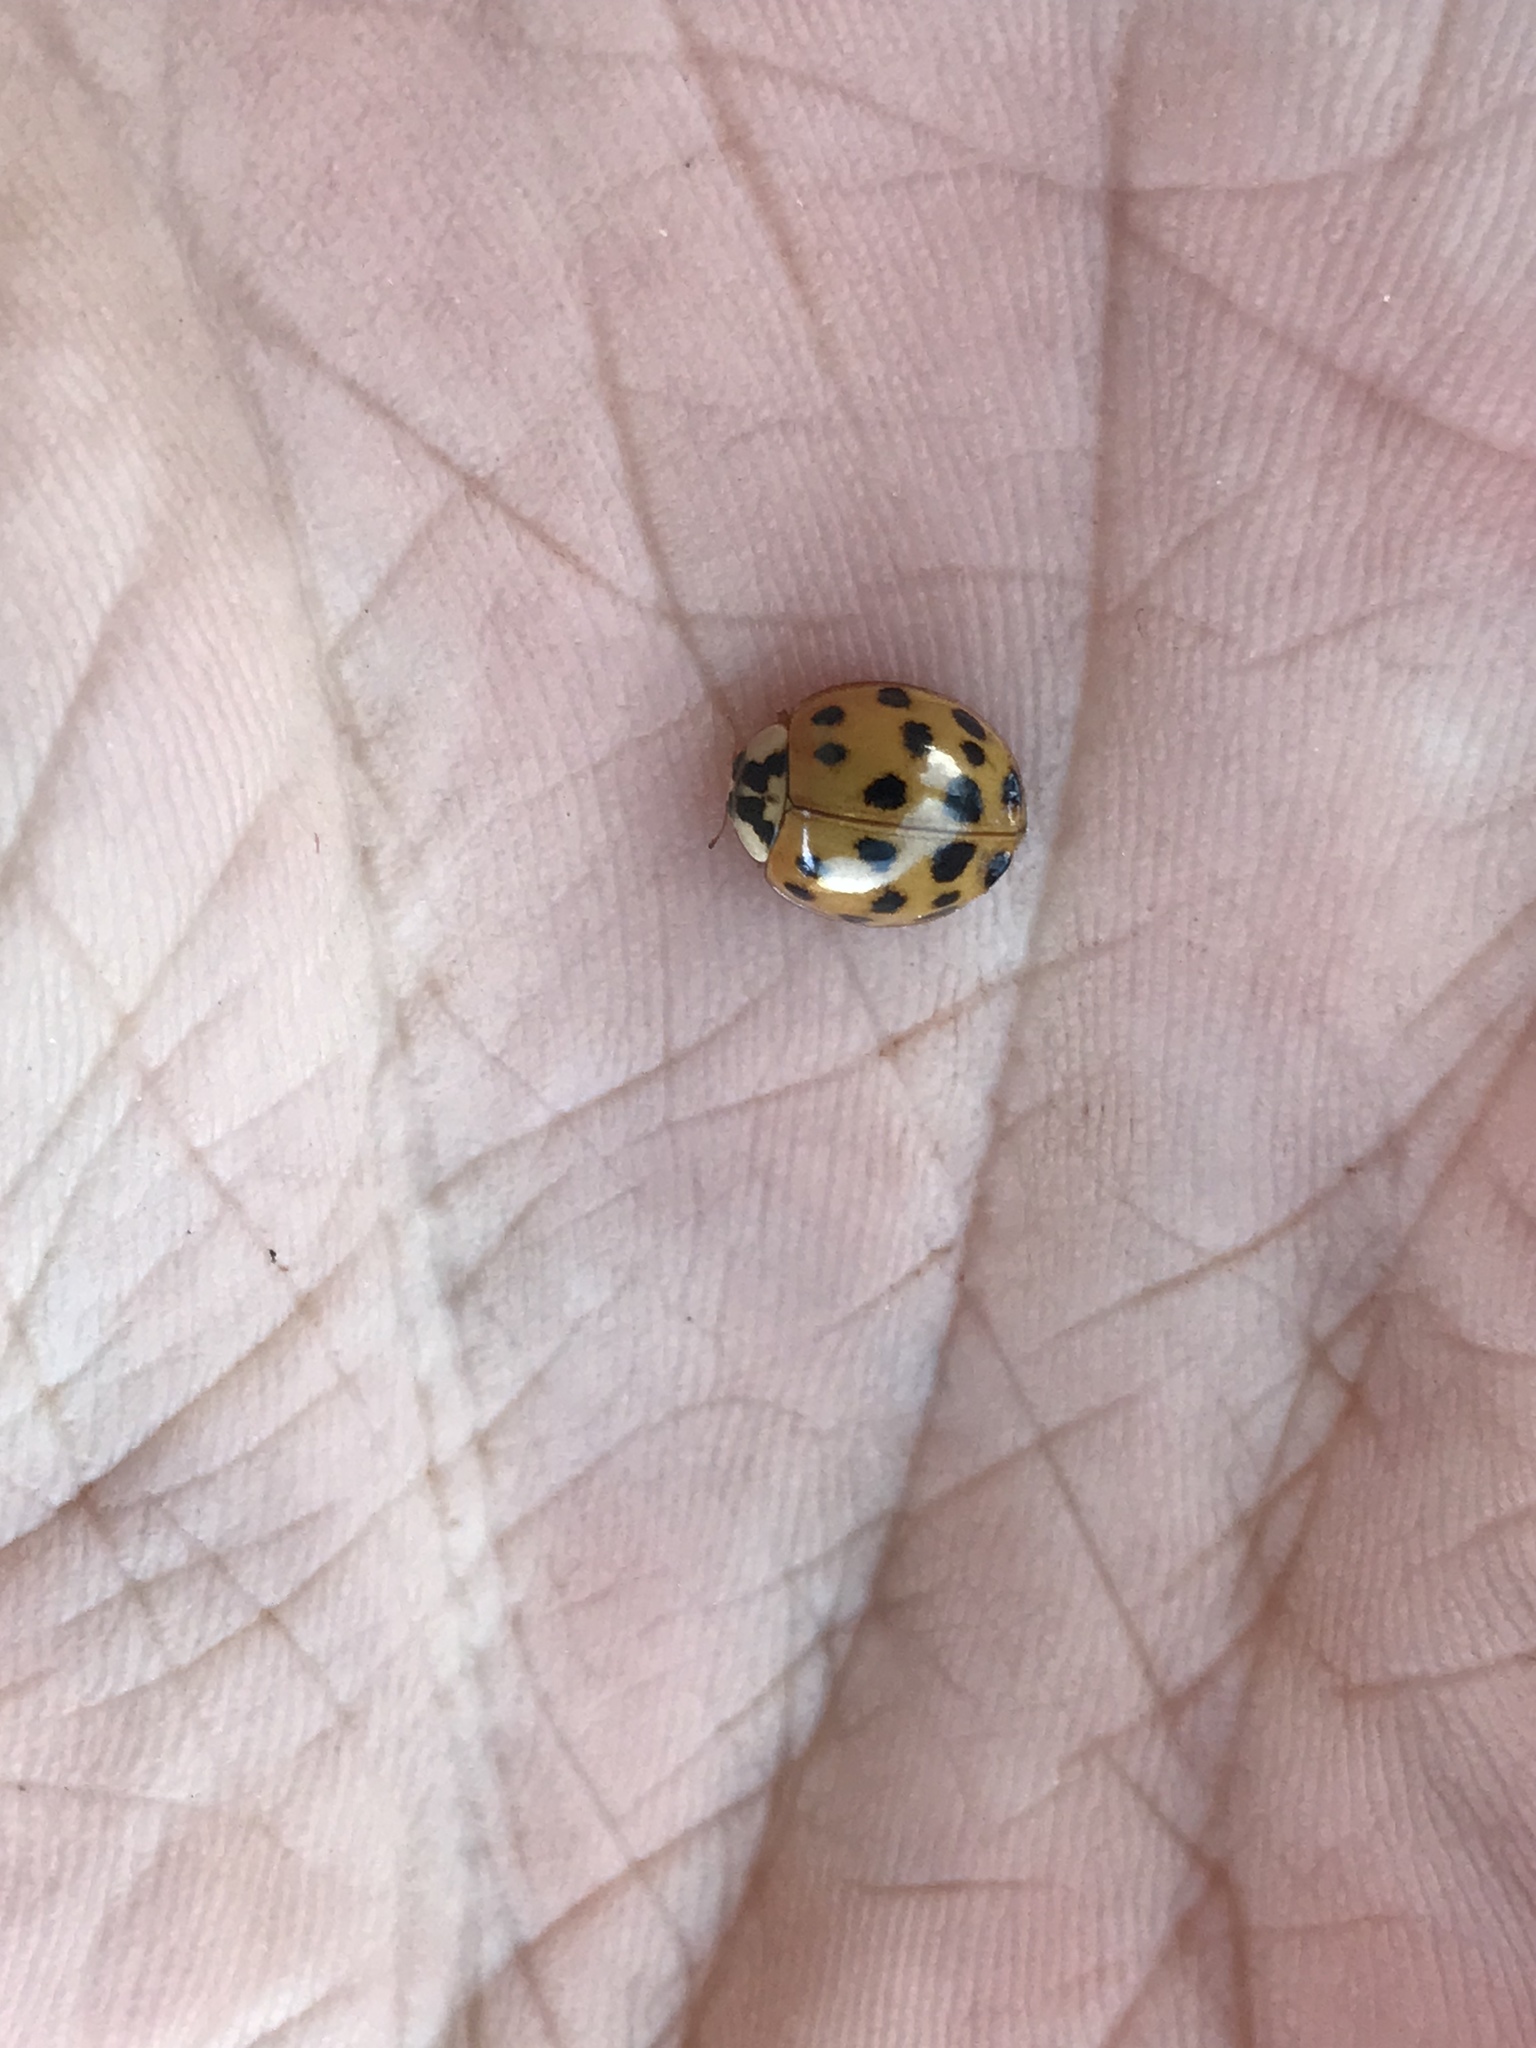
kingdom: Animalia
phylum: Arthropoda
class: Insecta
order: Coleoptera
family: Coccinellidae
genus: Harmonia
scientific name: Harmonia axyridis
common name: Harlequin ladybird
